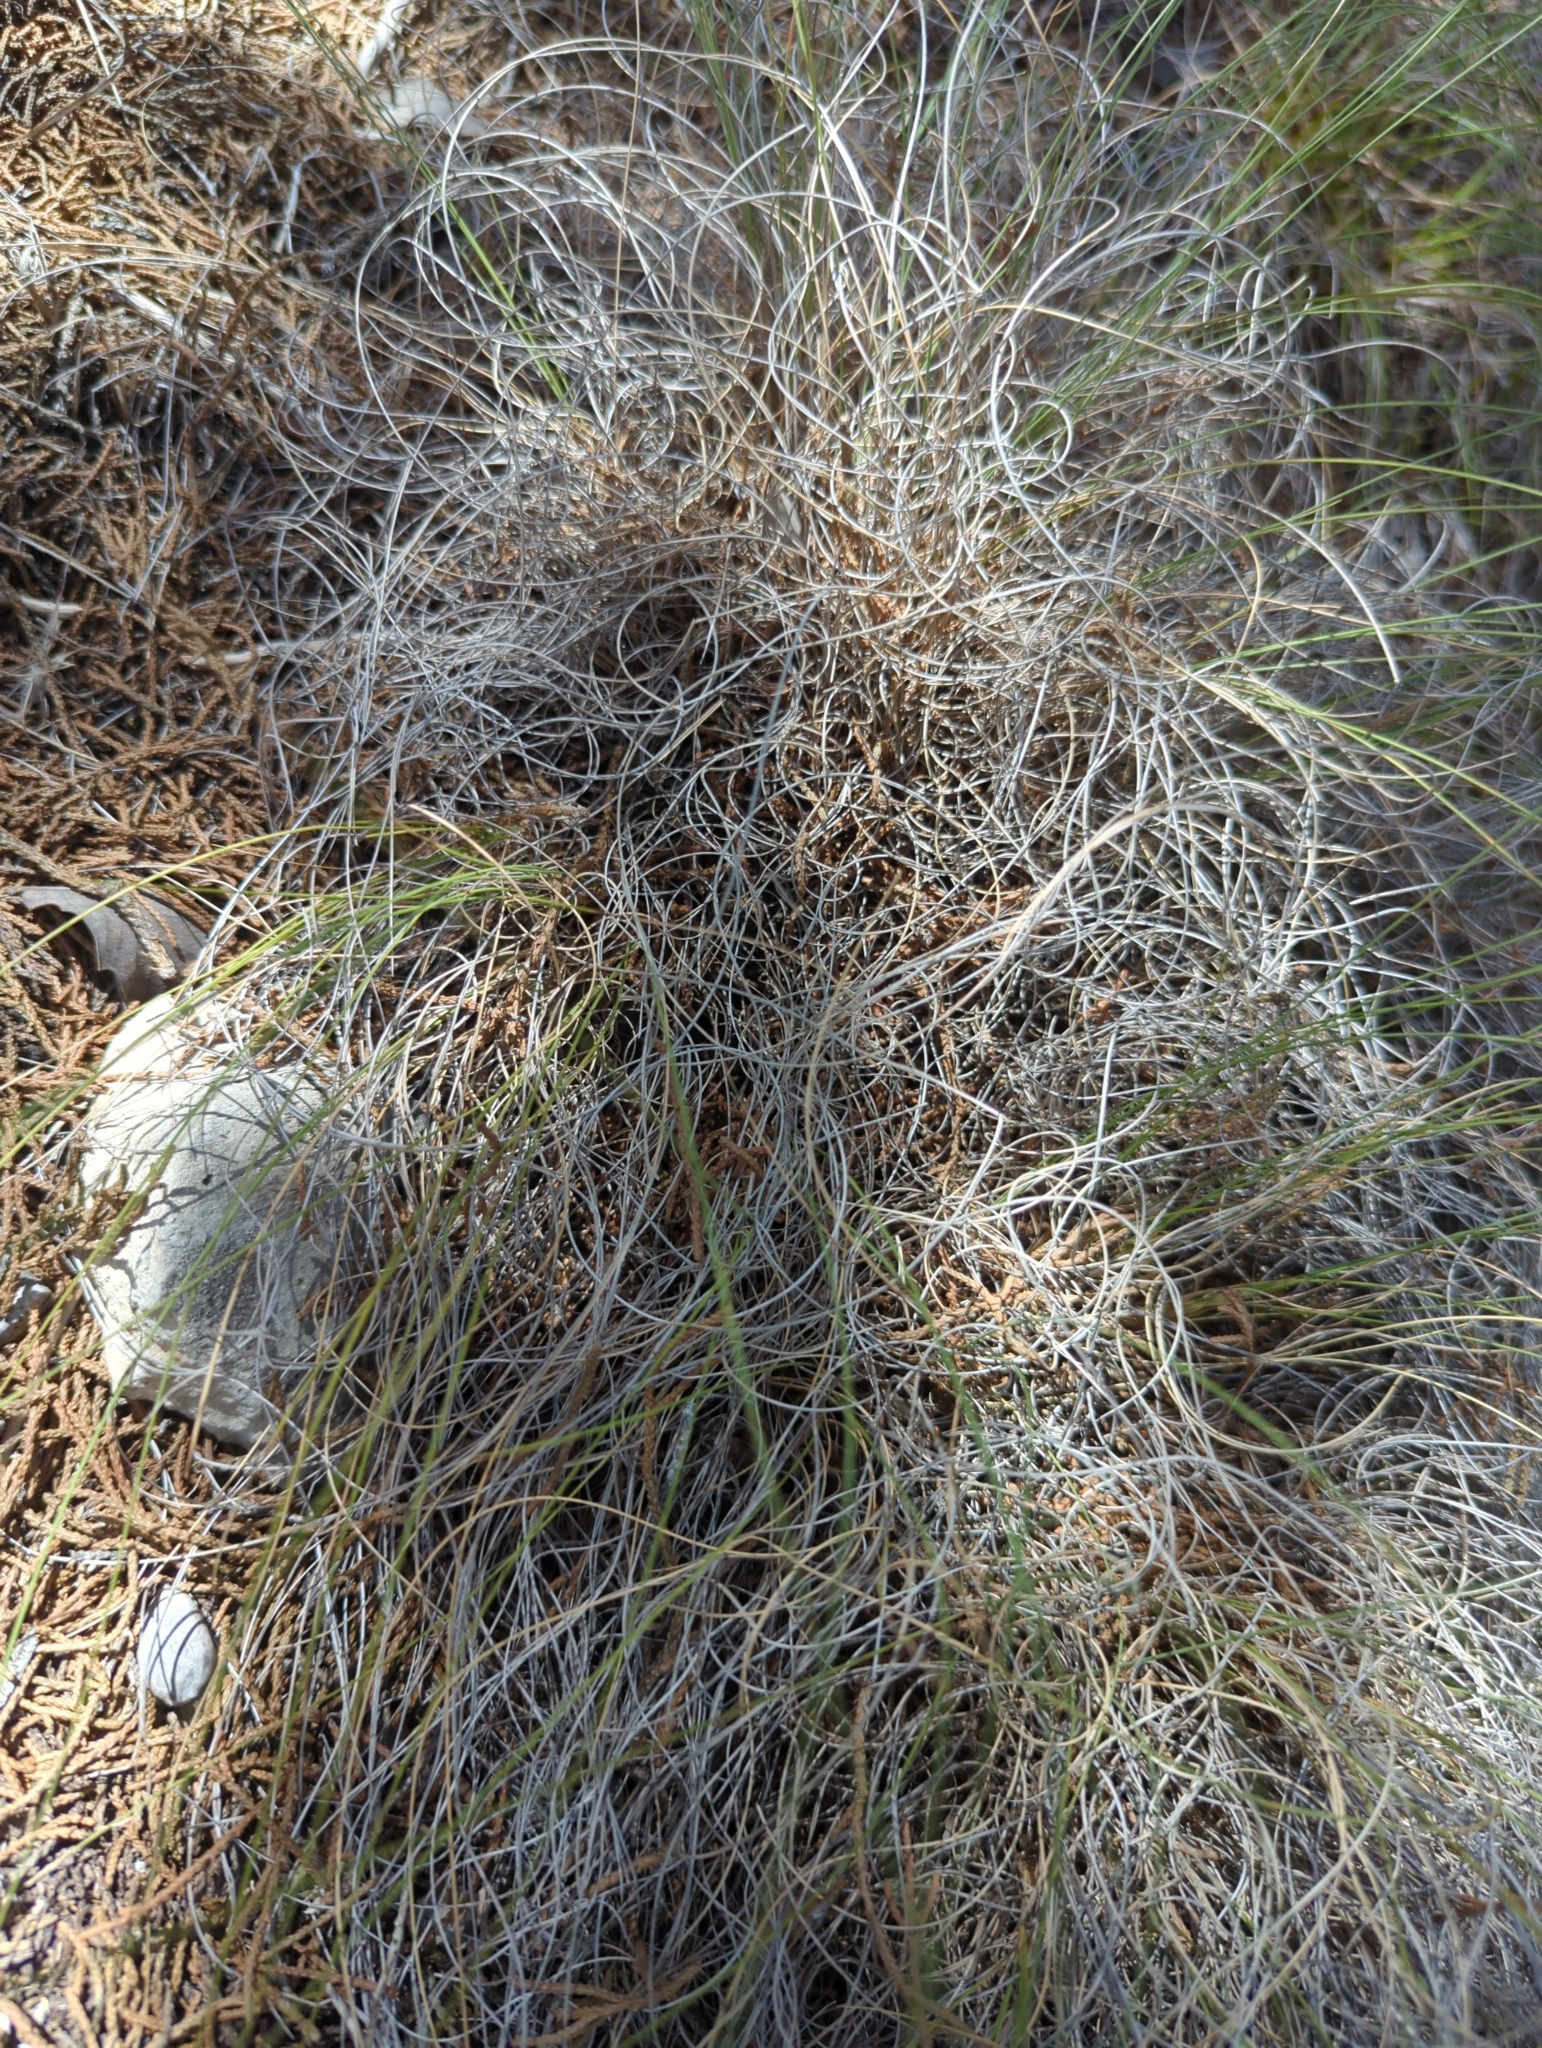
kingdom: Plantae
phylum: Tracheophyta
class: Liliopsida
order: Poales
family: Poaceae
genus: Muhlenbergia
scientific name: Muhlenbergia reverchonii
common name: Seep muhly
